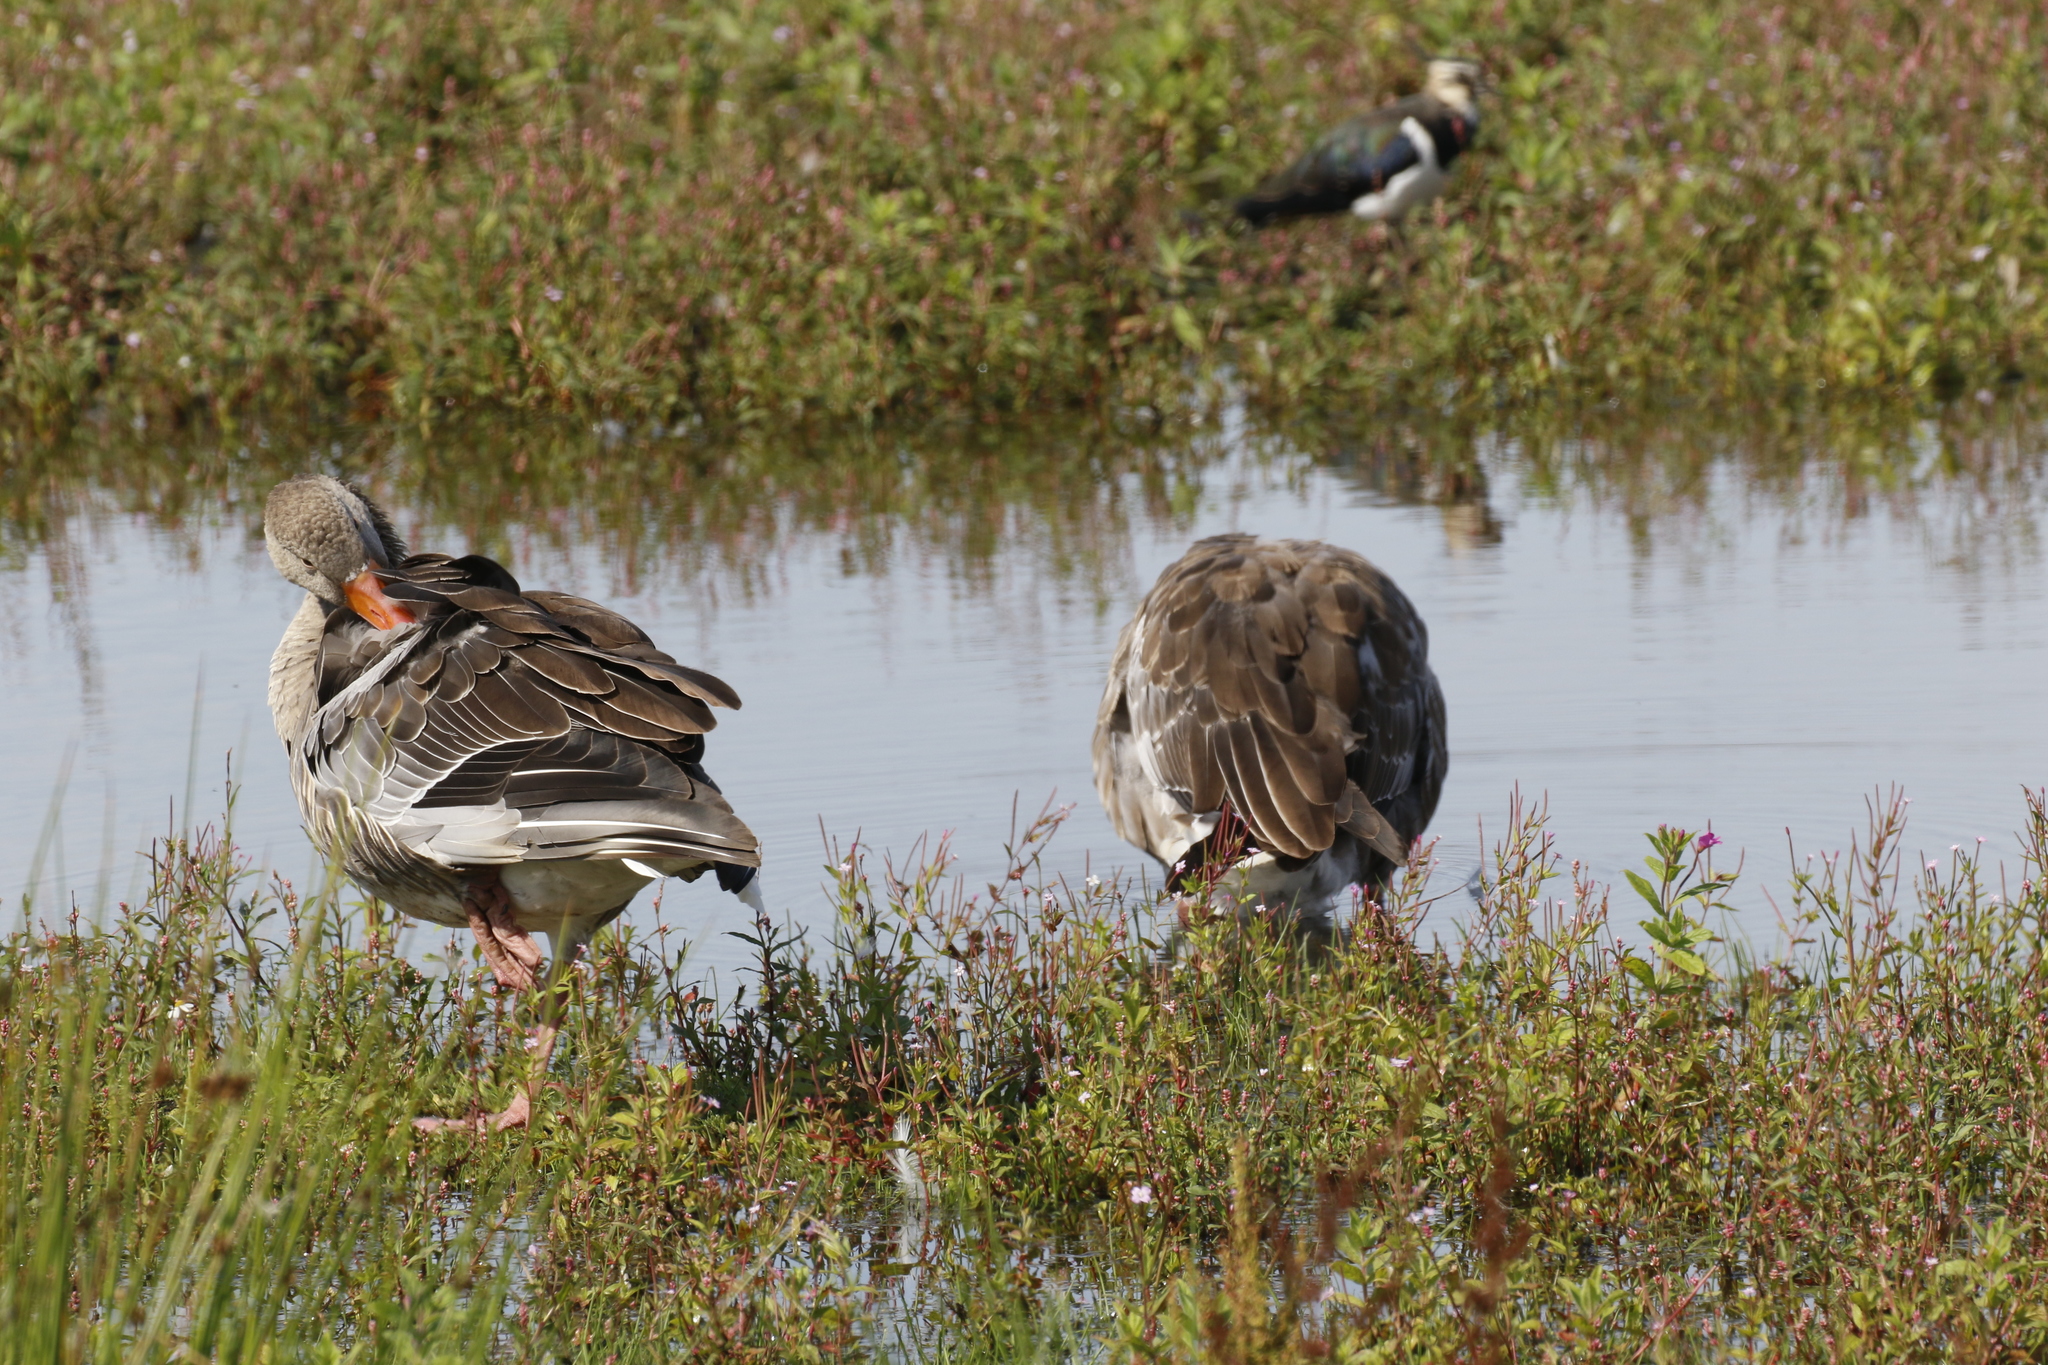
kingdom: Animalia
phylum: Chordata
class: Aves
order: Anseriformes
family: Anatidae
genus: Anser
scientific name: Anser anser
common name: Greylag goose
